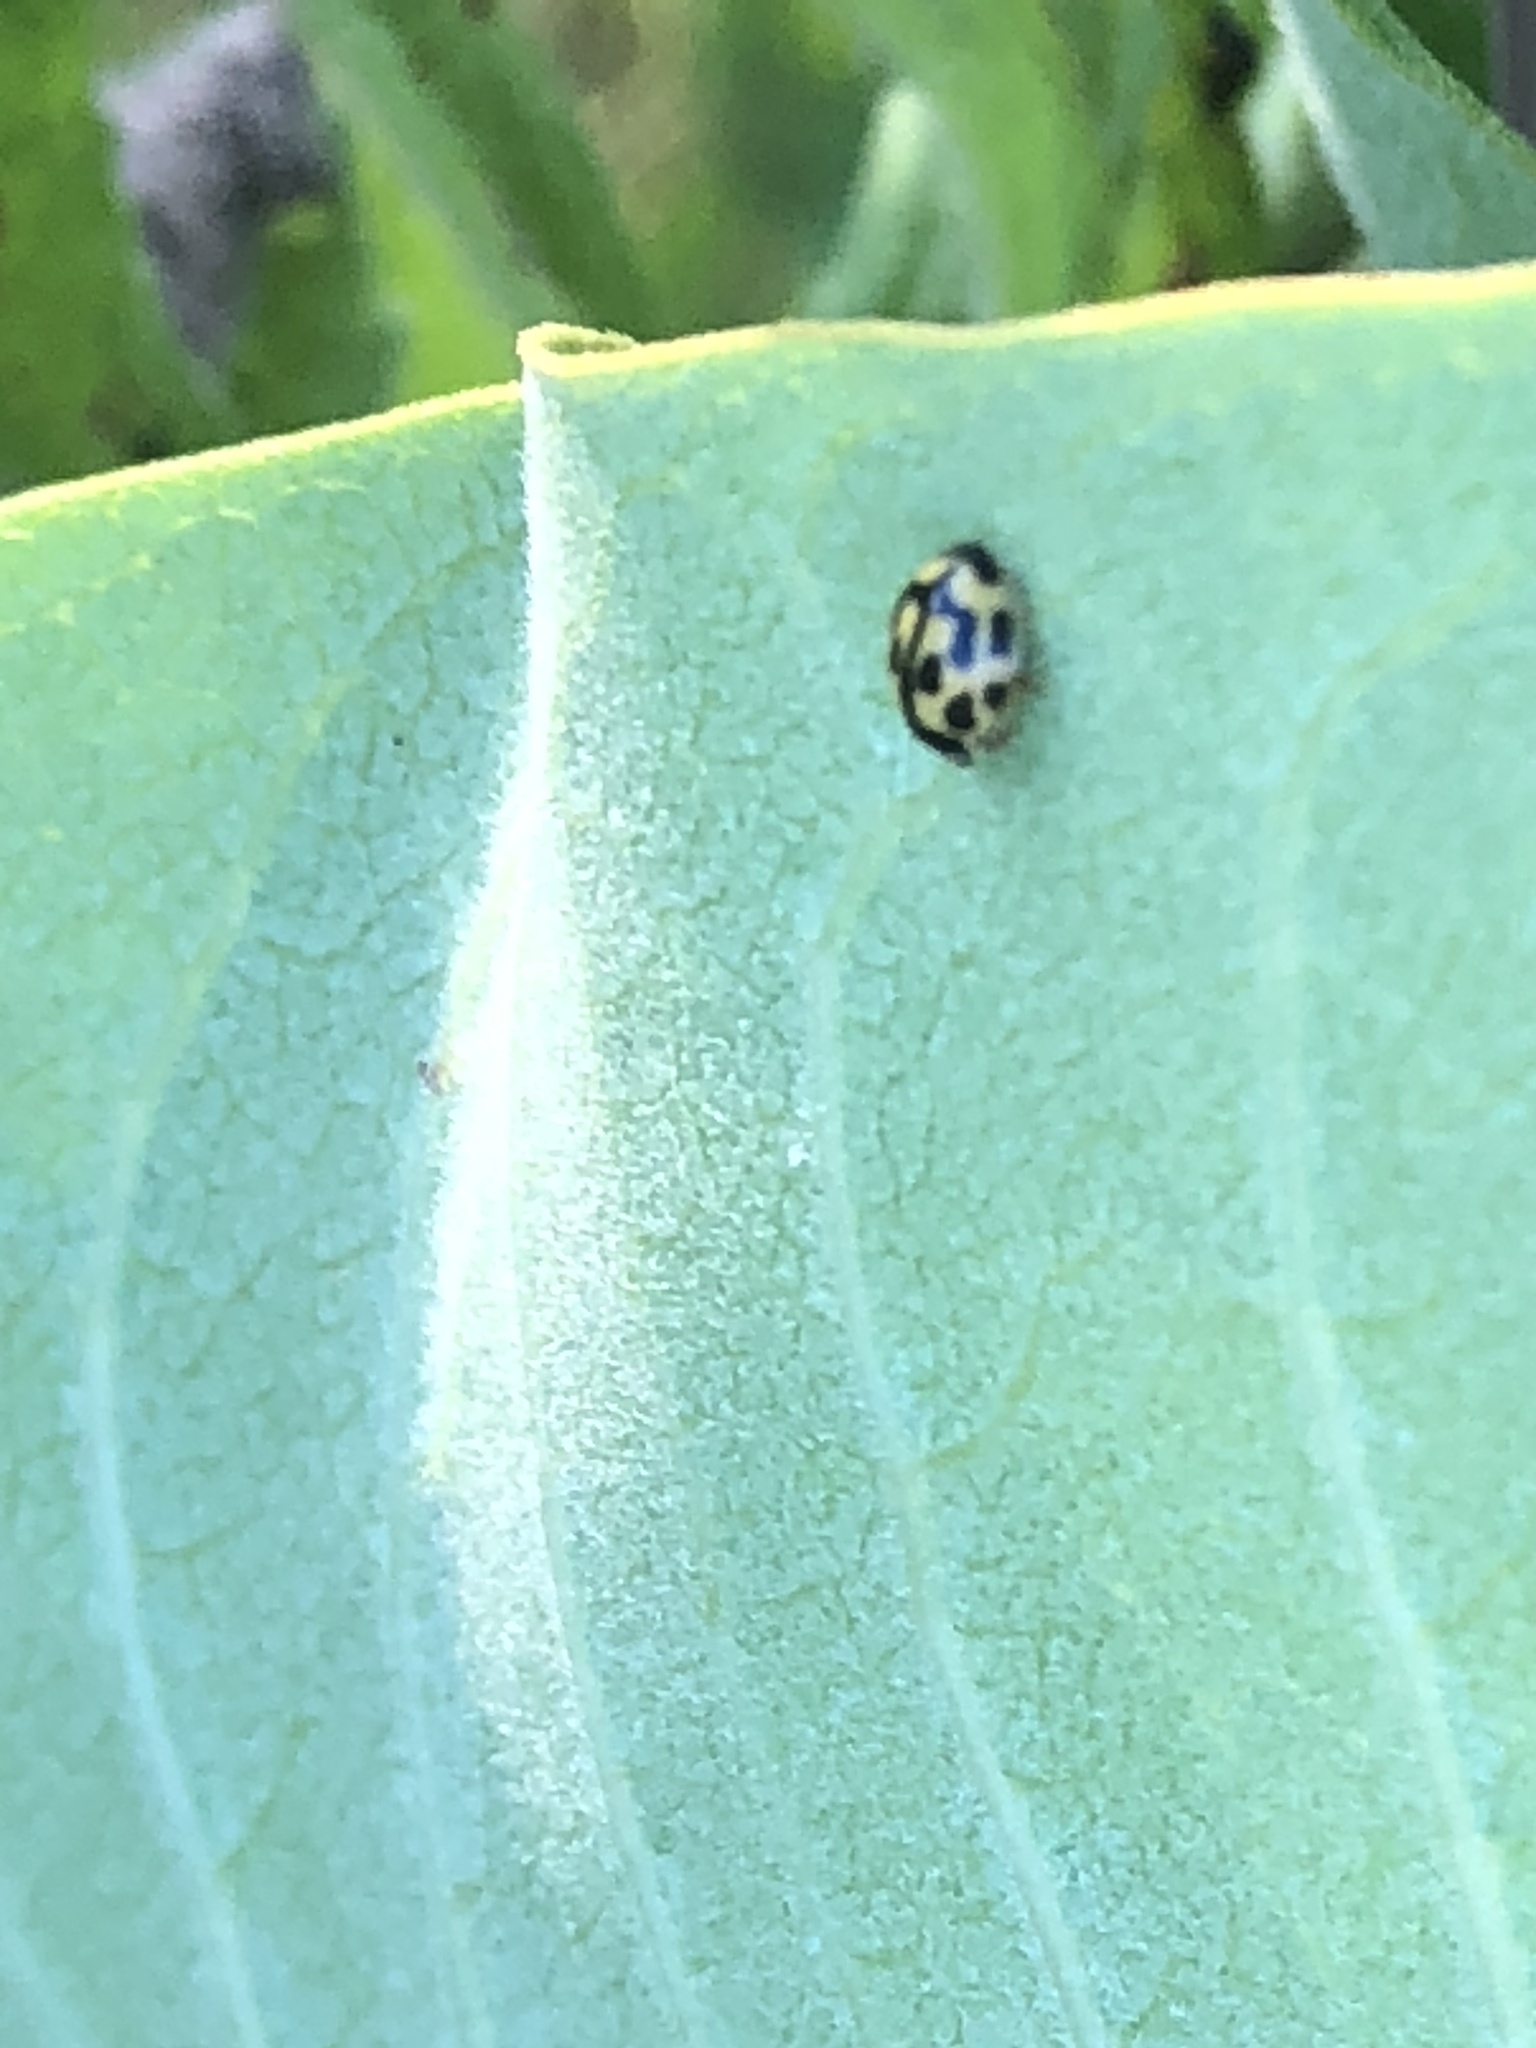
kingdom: Animalia
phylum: Arthropoda
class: Insecta
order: Coleoptera
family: Coccinellidae
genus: Propylaea
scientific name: Propylaea quatuordecimpunctata
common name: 14-spotted ladybird beetle
